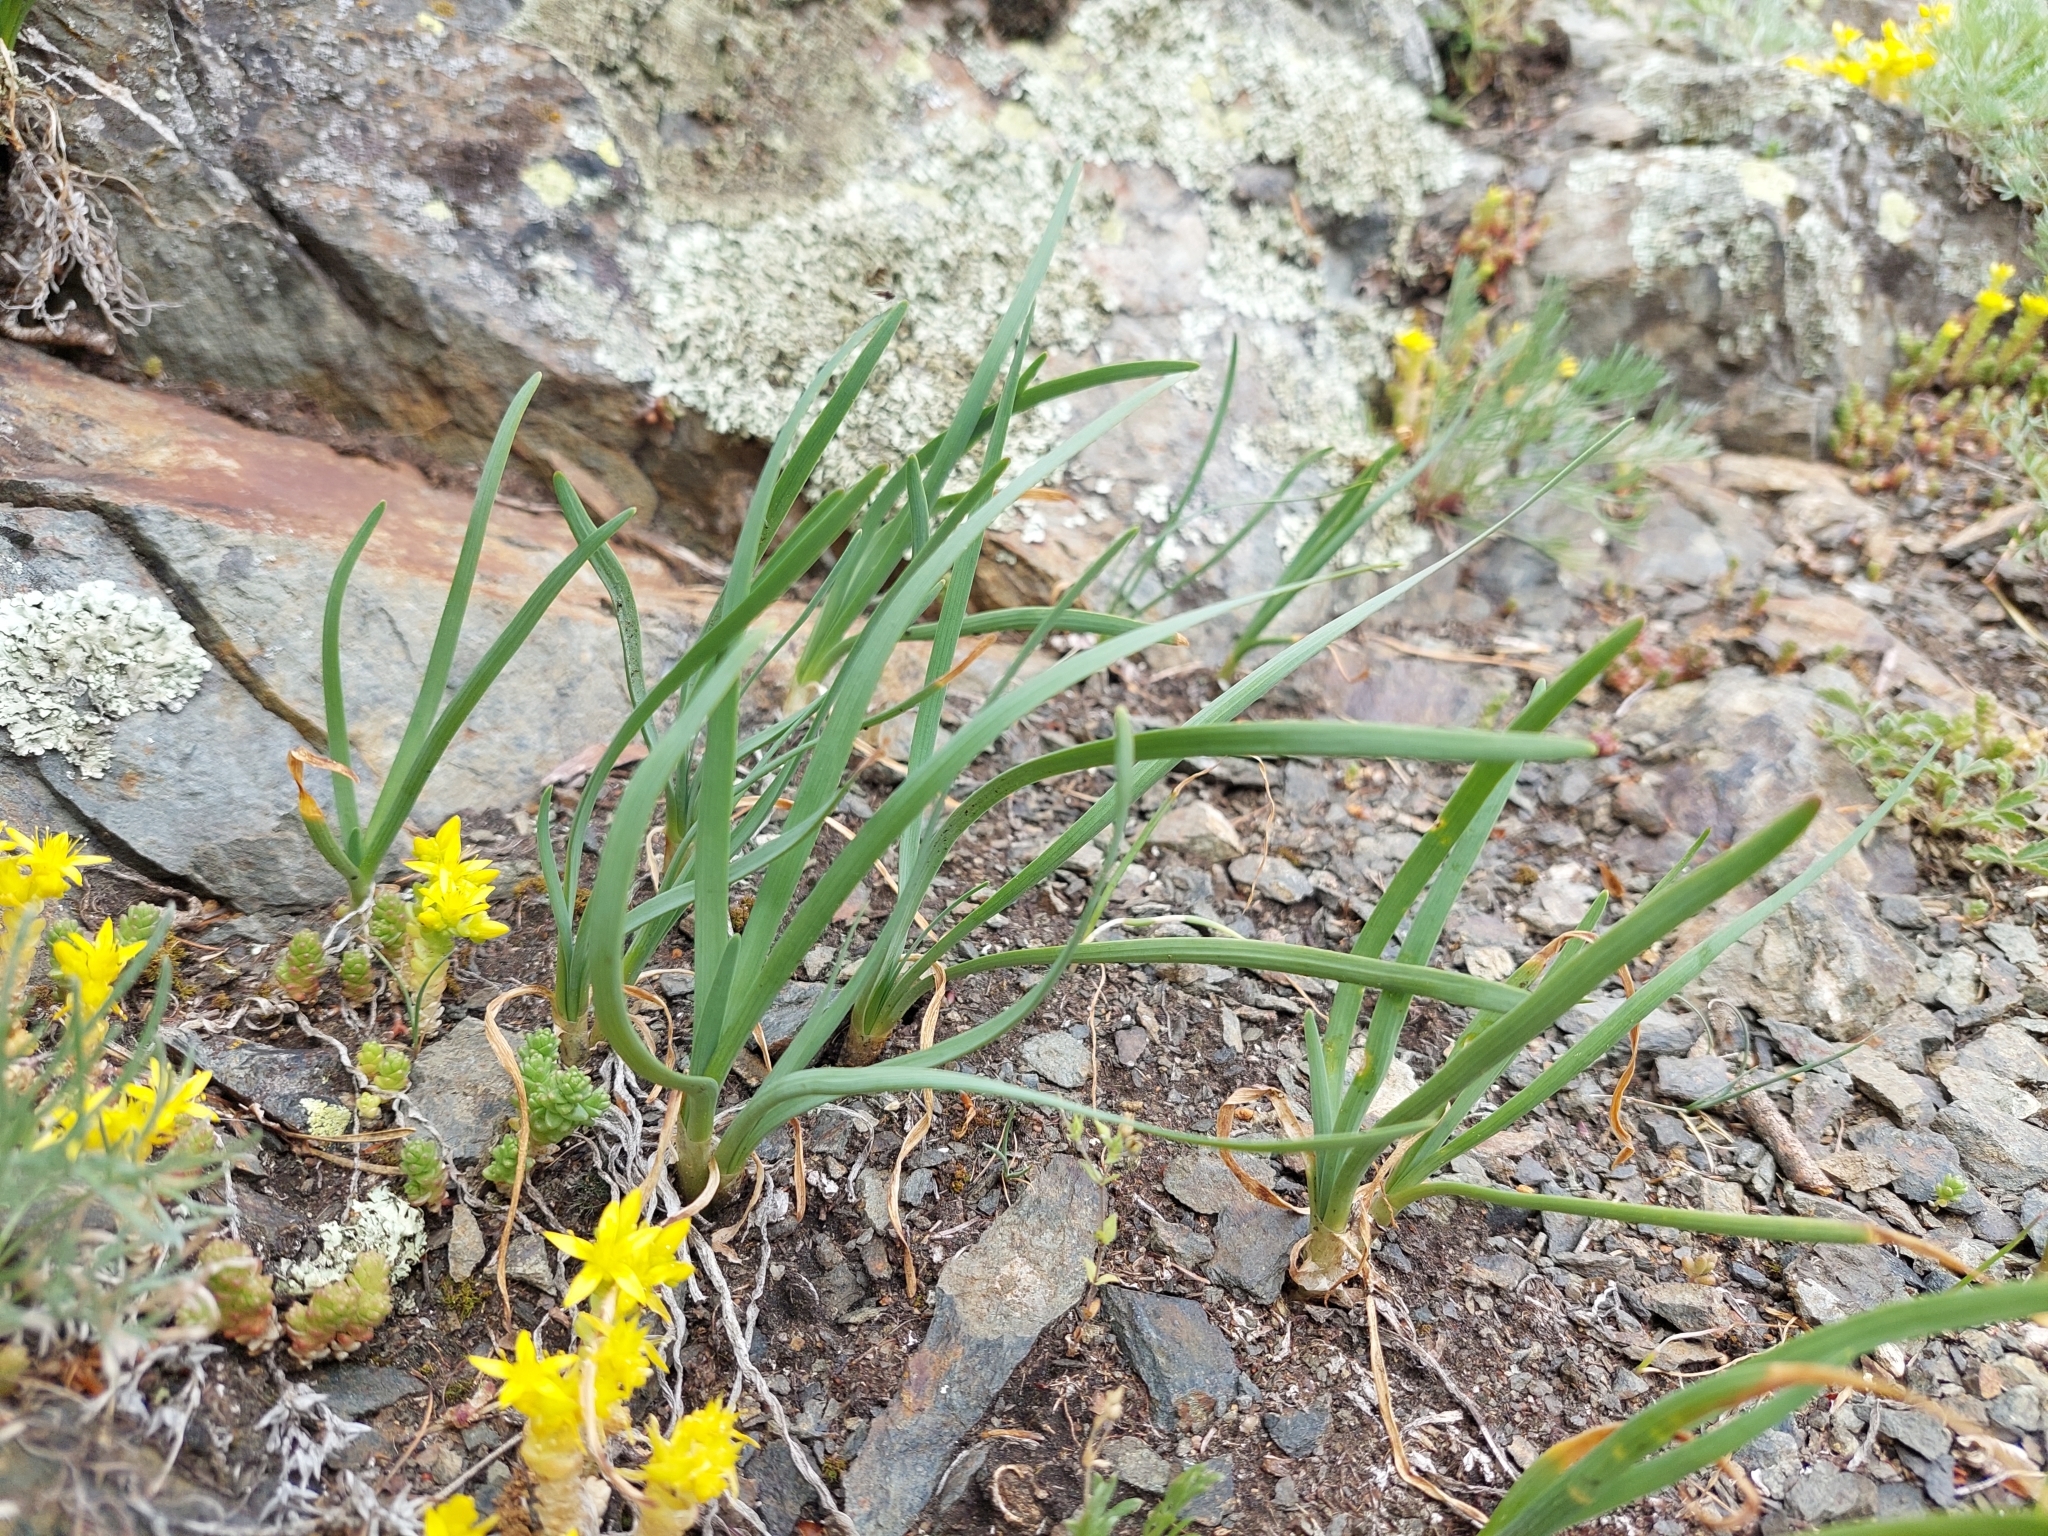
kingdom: Plantae
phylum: Tracheophyta
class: Liliopsida
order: Asparagales
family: Amaryllidaceae
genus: Allium
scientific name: Allium lusitanicum
